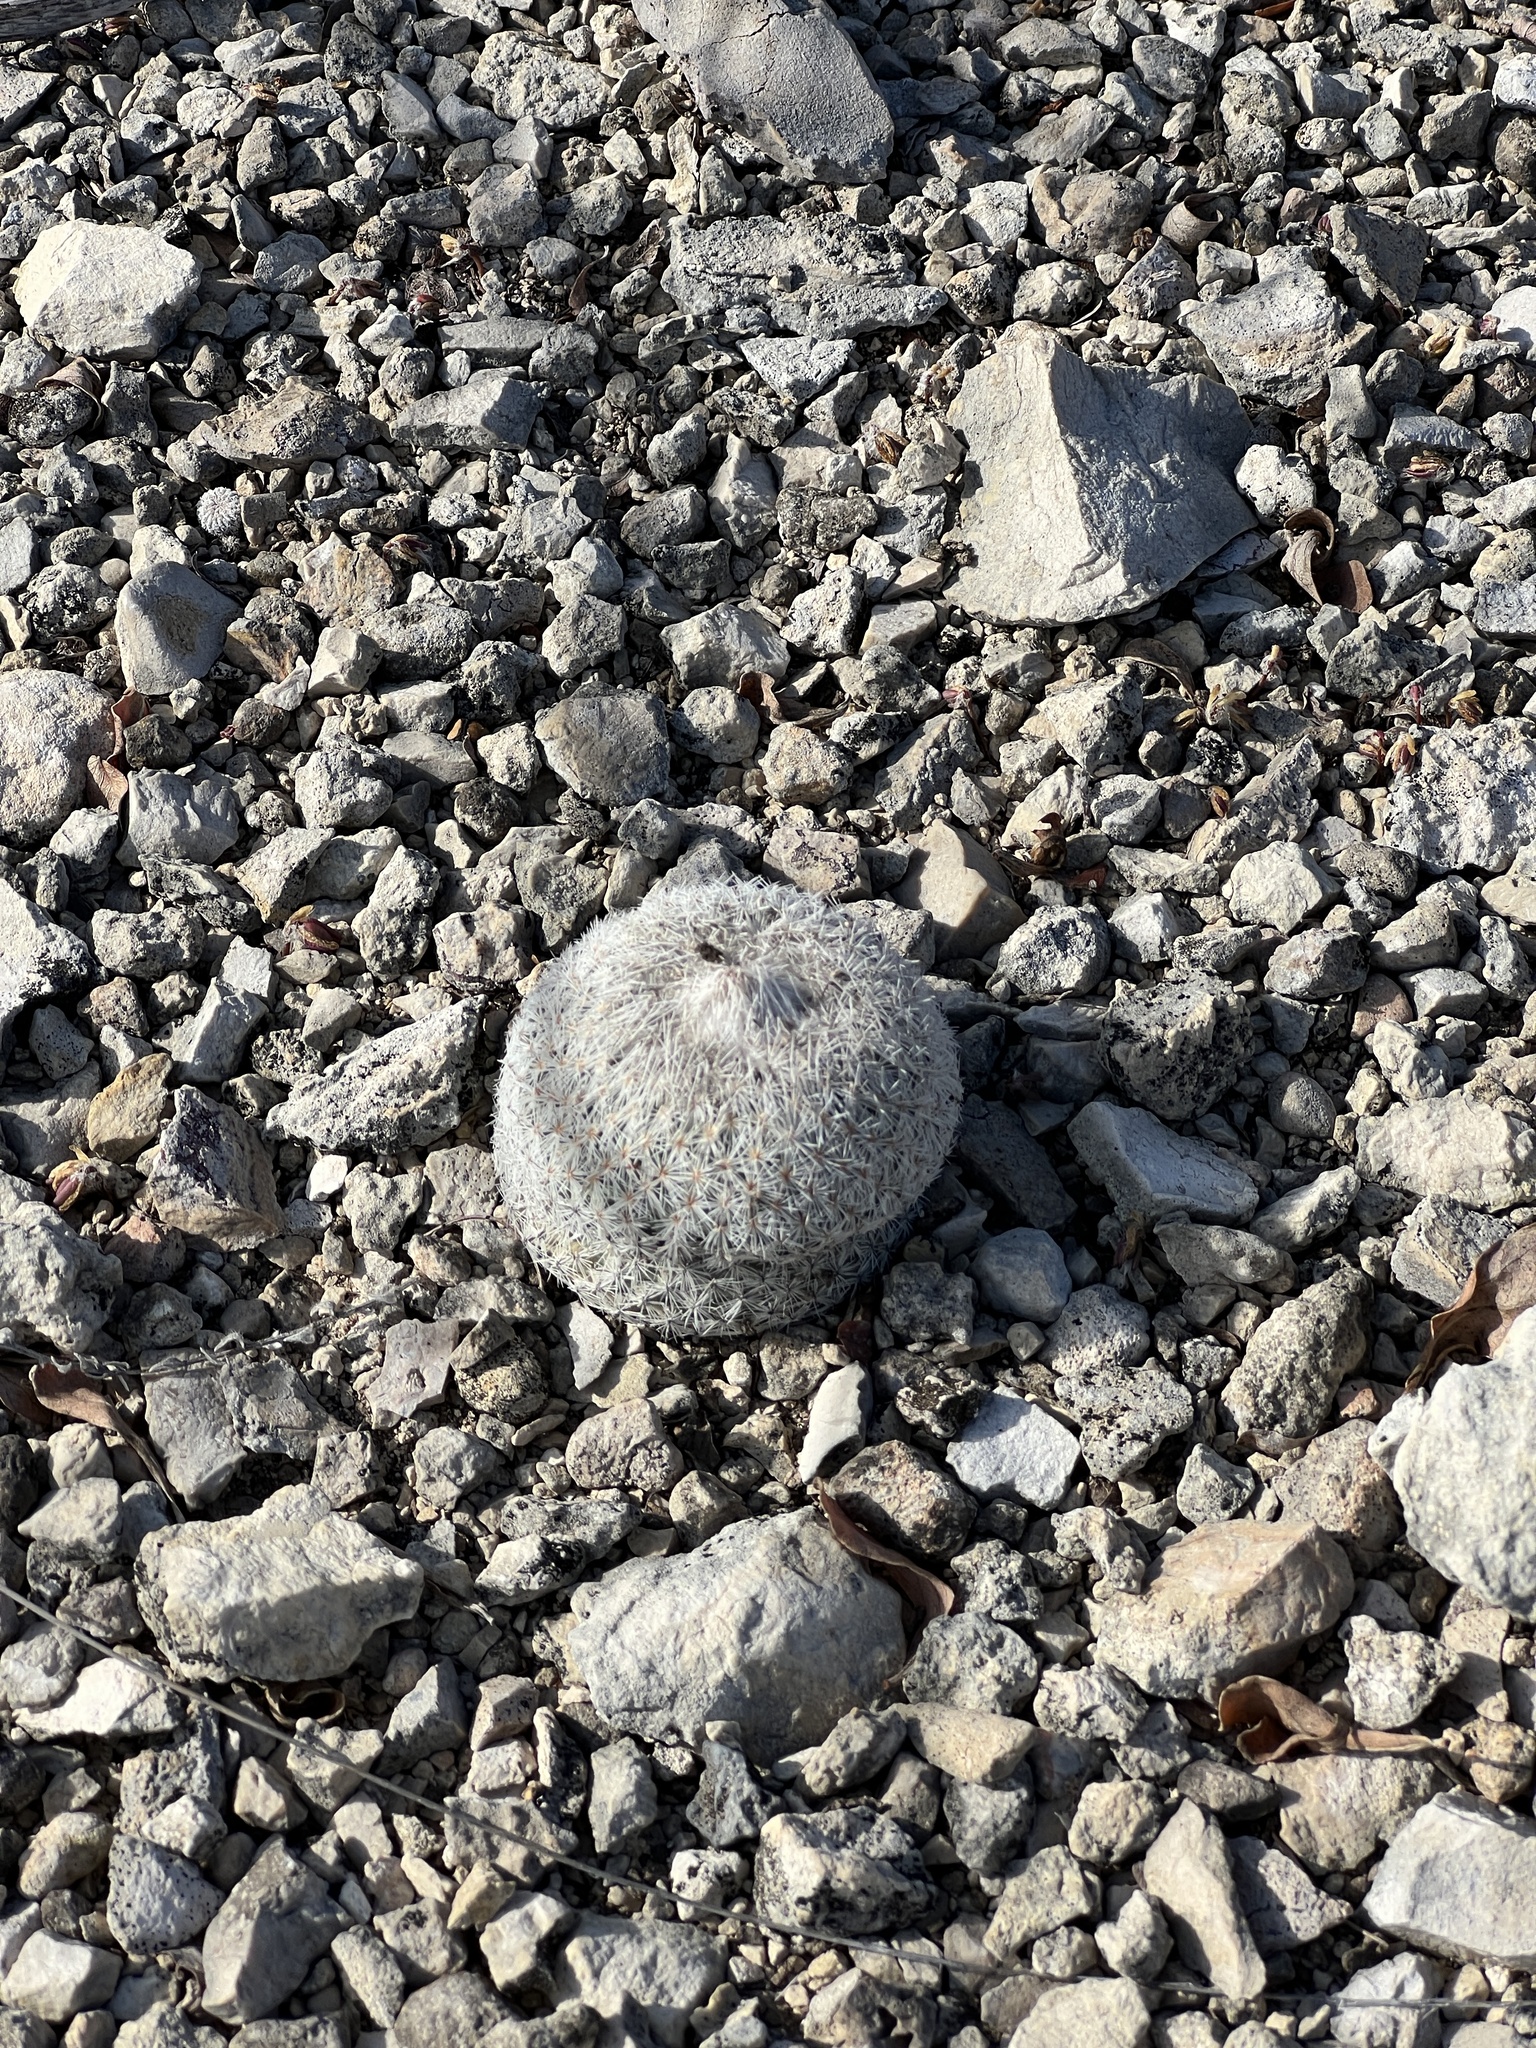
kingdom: Plantae
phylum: Tracheophyta
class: Magnoliopsida
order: Caryophyllales
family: Cactaceae
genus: Epithelantha
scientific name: Epithelantha micromeris
